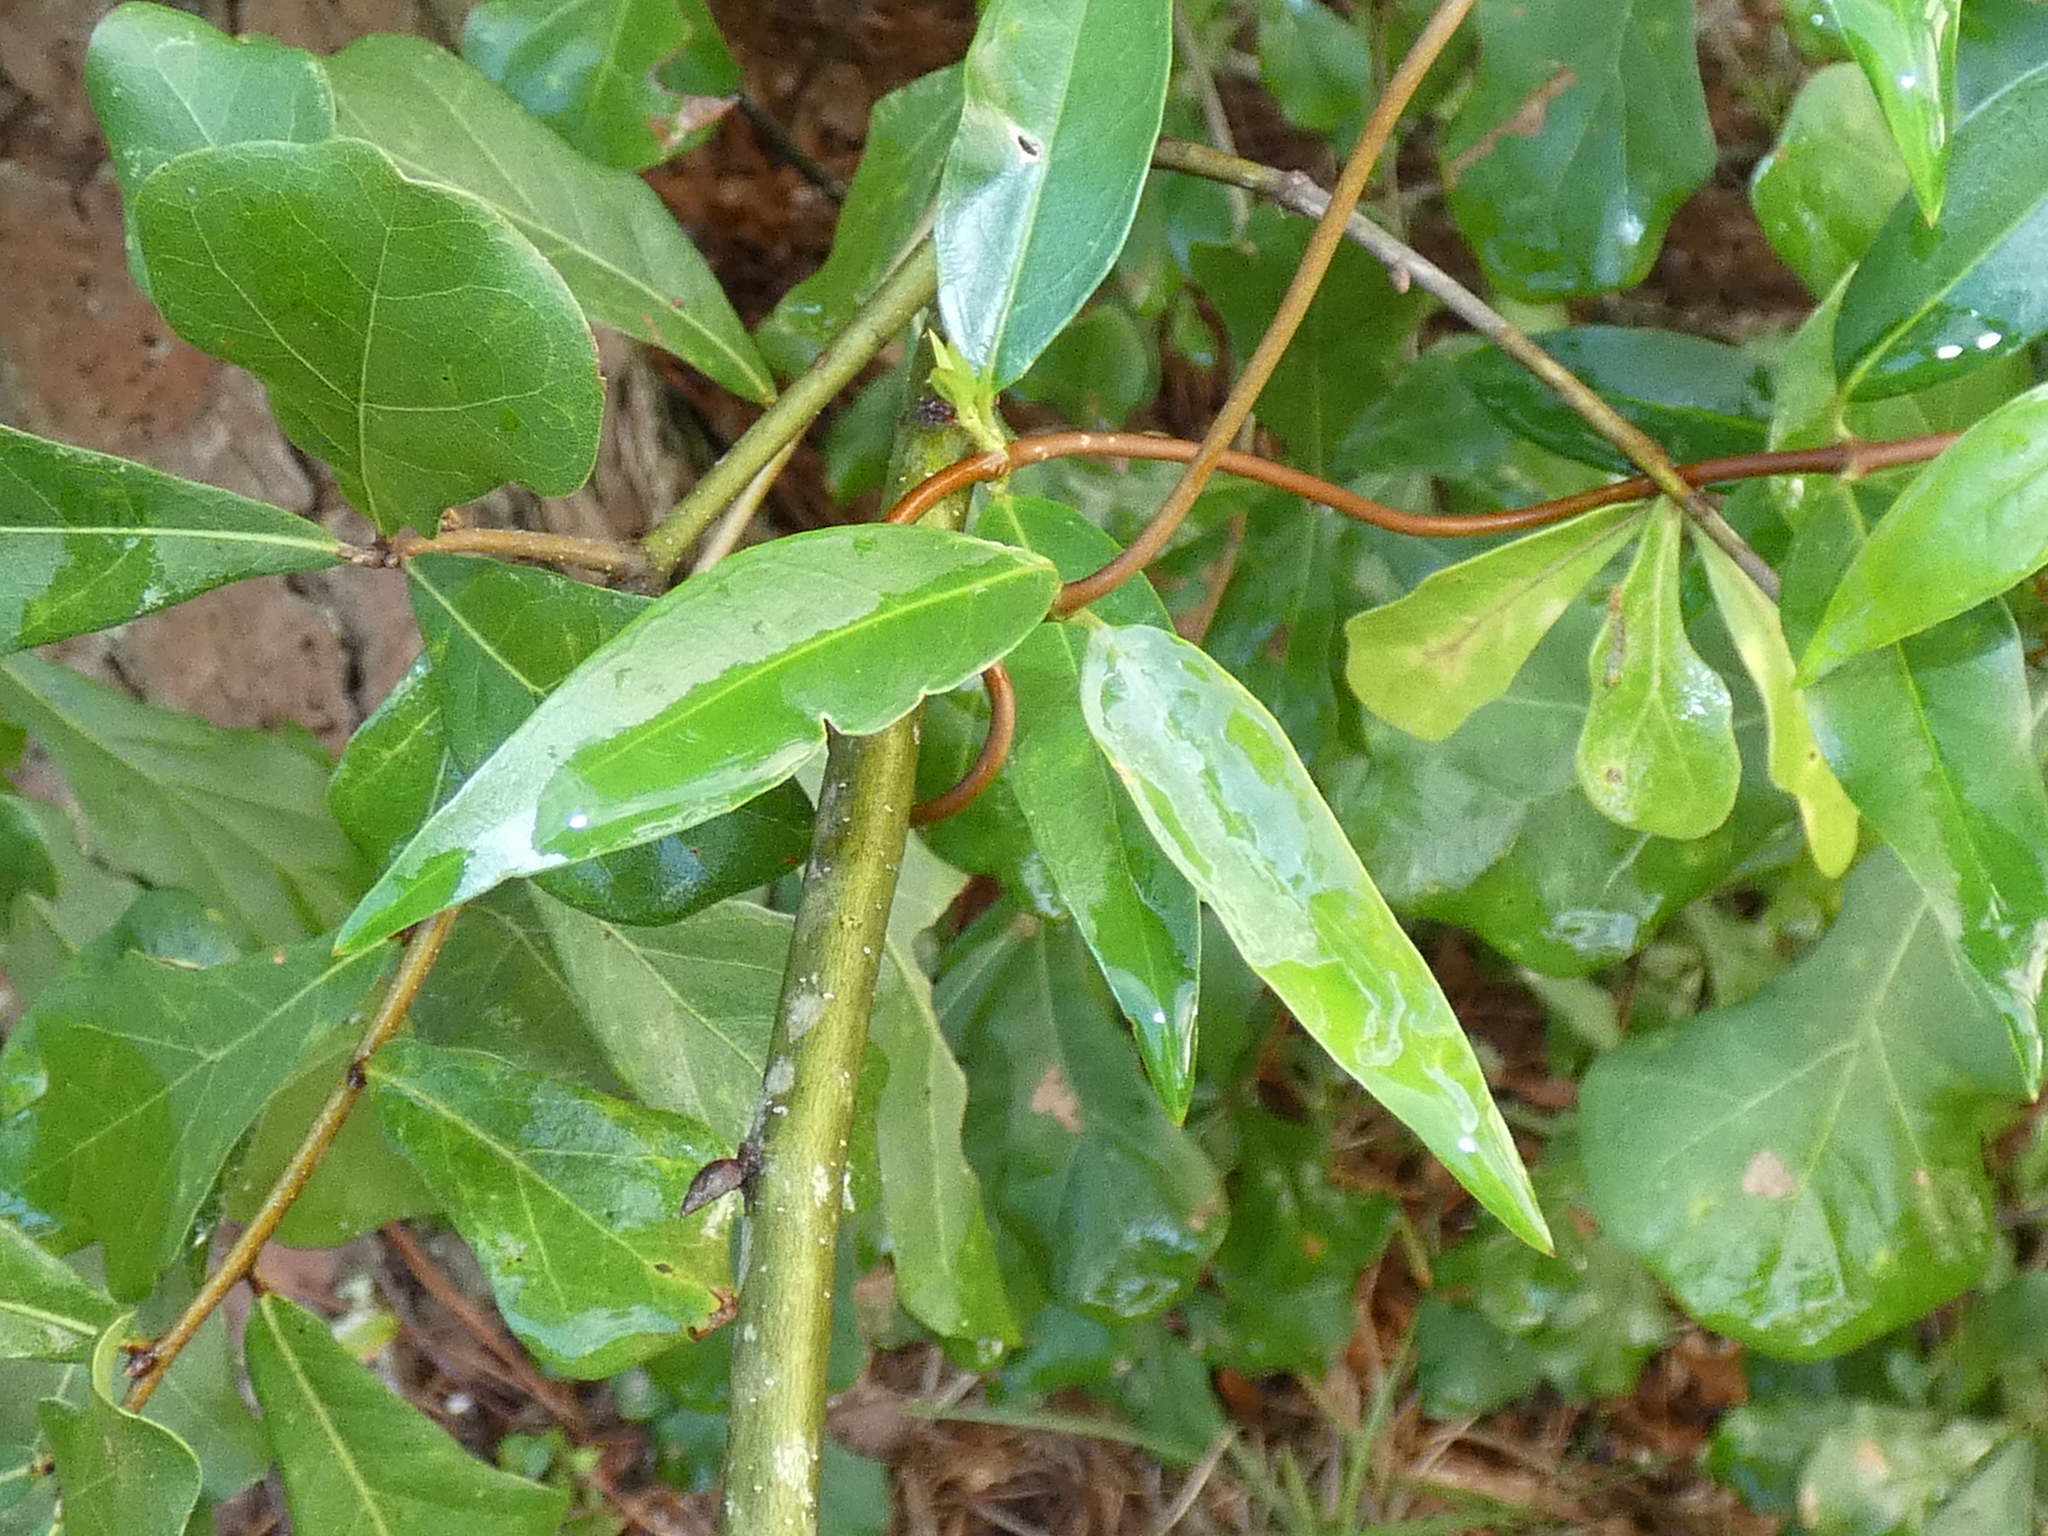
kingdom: Plantae
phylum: Tracheophyta
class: Magnoliopsida
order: Gentianales
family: Gelsemiaceae
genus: Gelsemium
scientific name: Gelsemium sempervirens
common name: Carolina-jasmine
